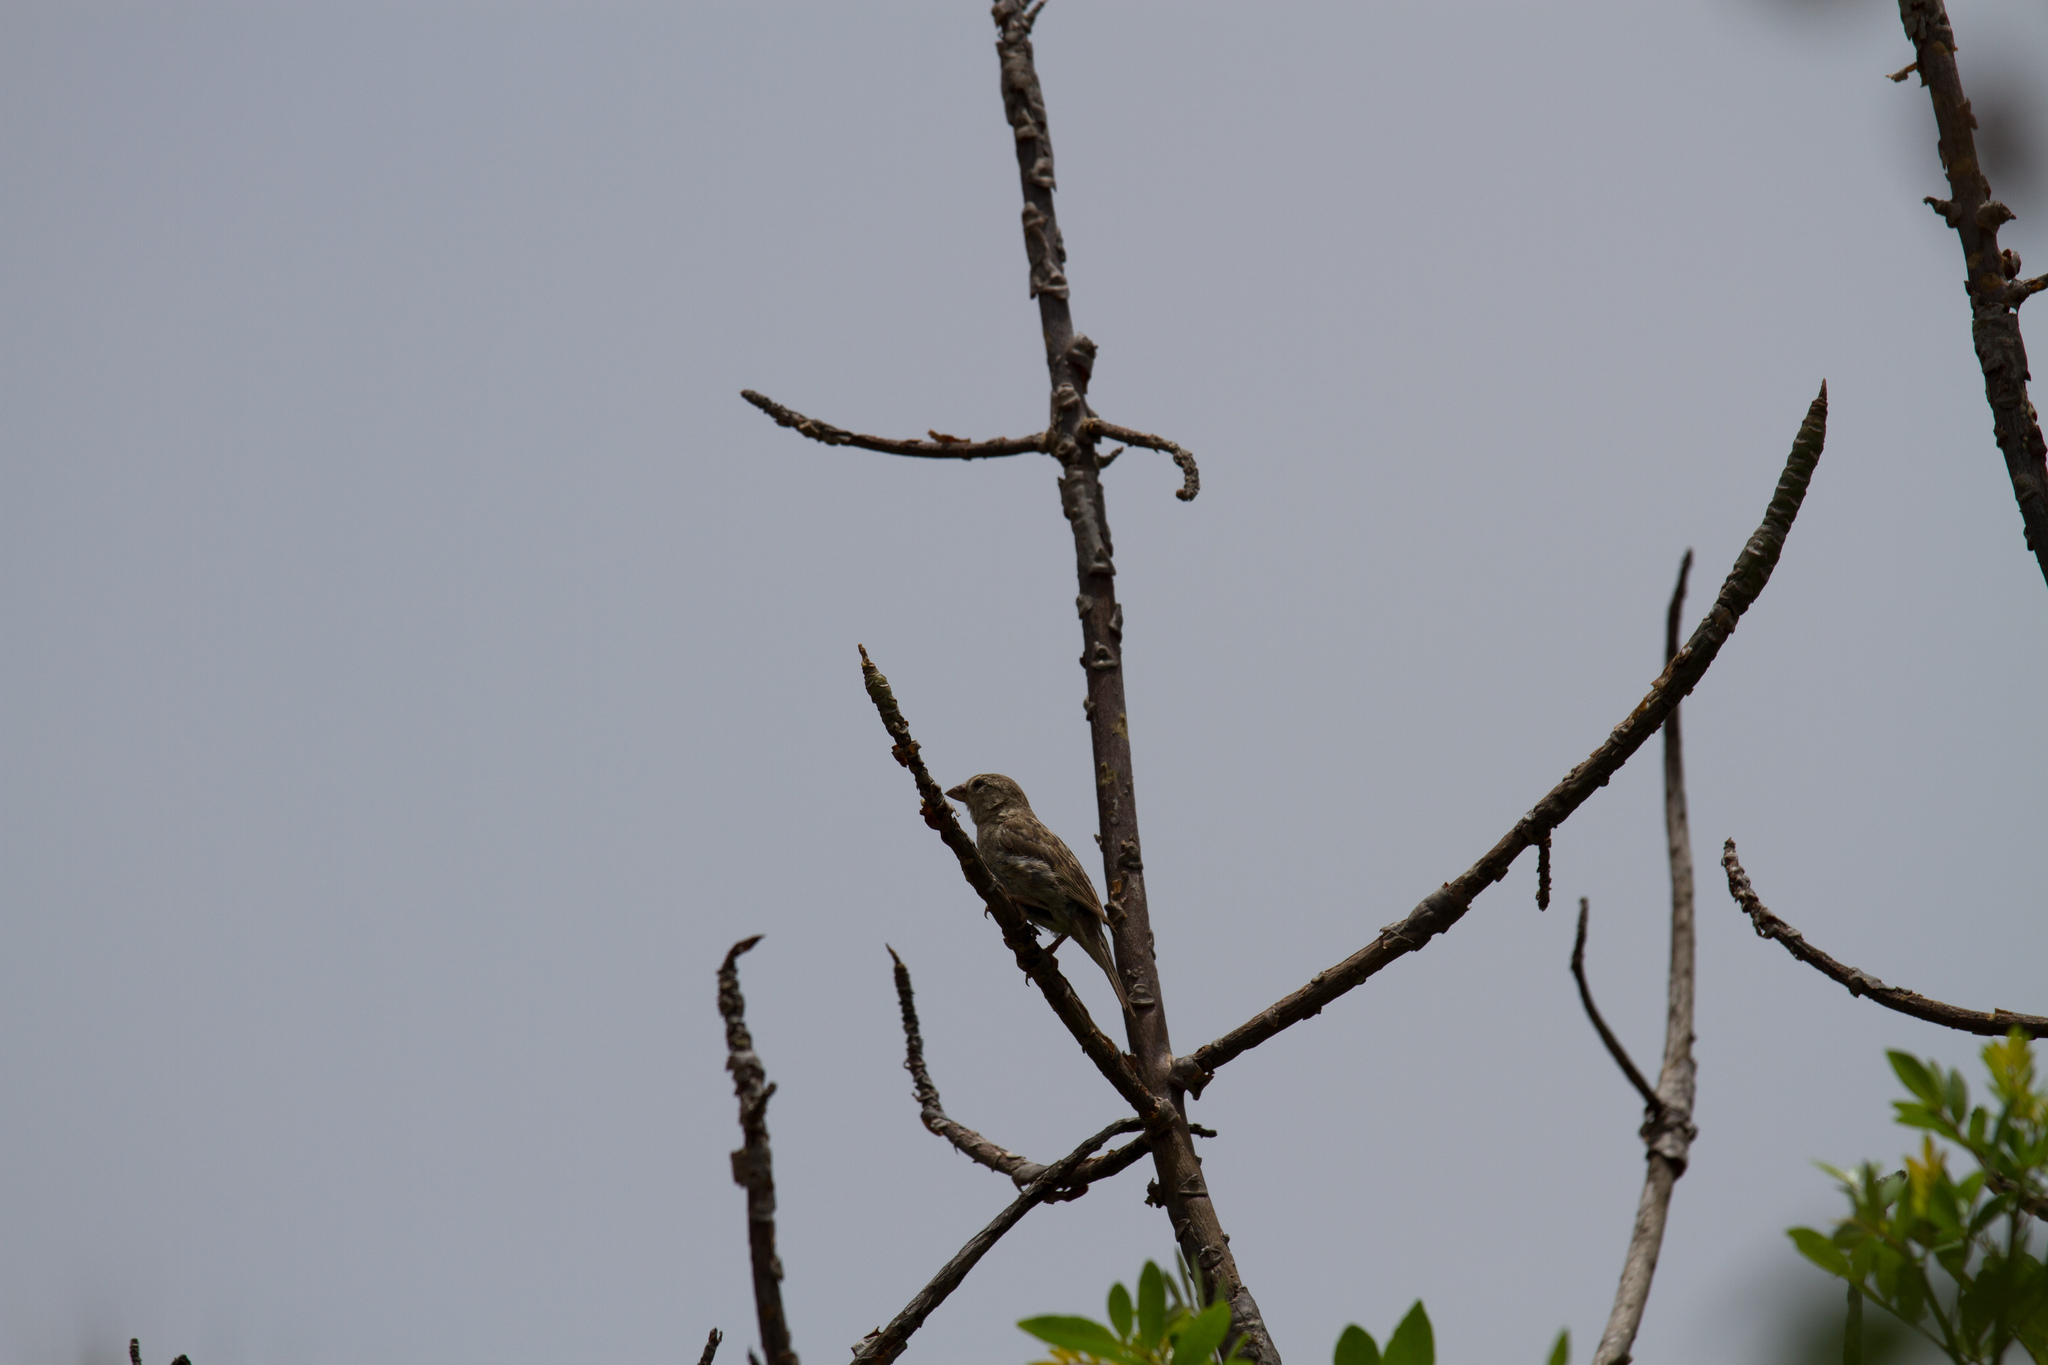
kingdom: Animalia
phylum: Chordata
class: Aves
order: Passeriformes
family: Passeridae
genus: Passer
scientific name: Passer hispaniolensis
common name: Spanish sparrow
